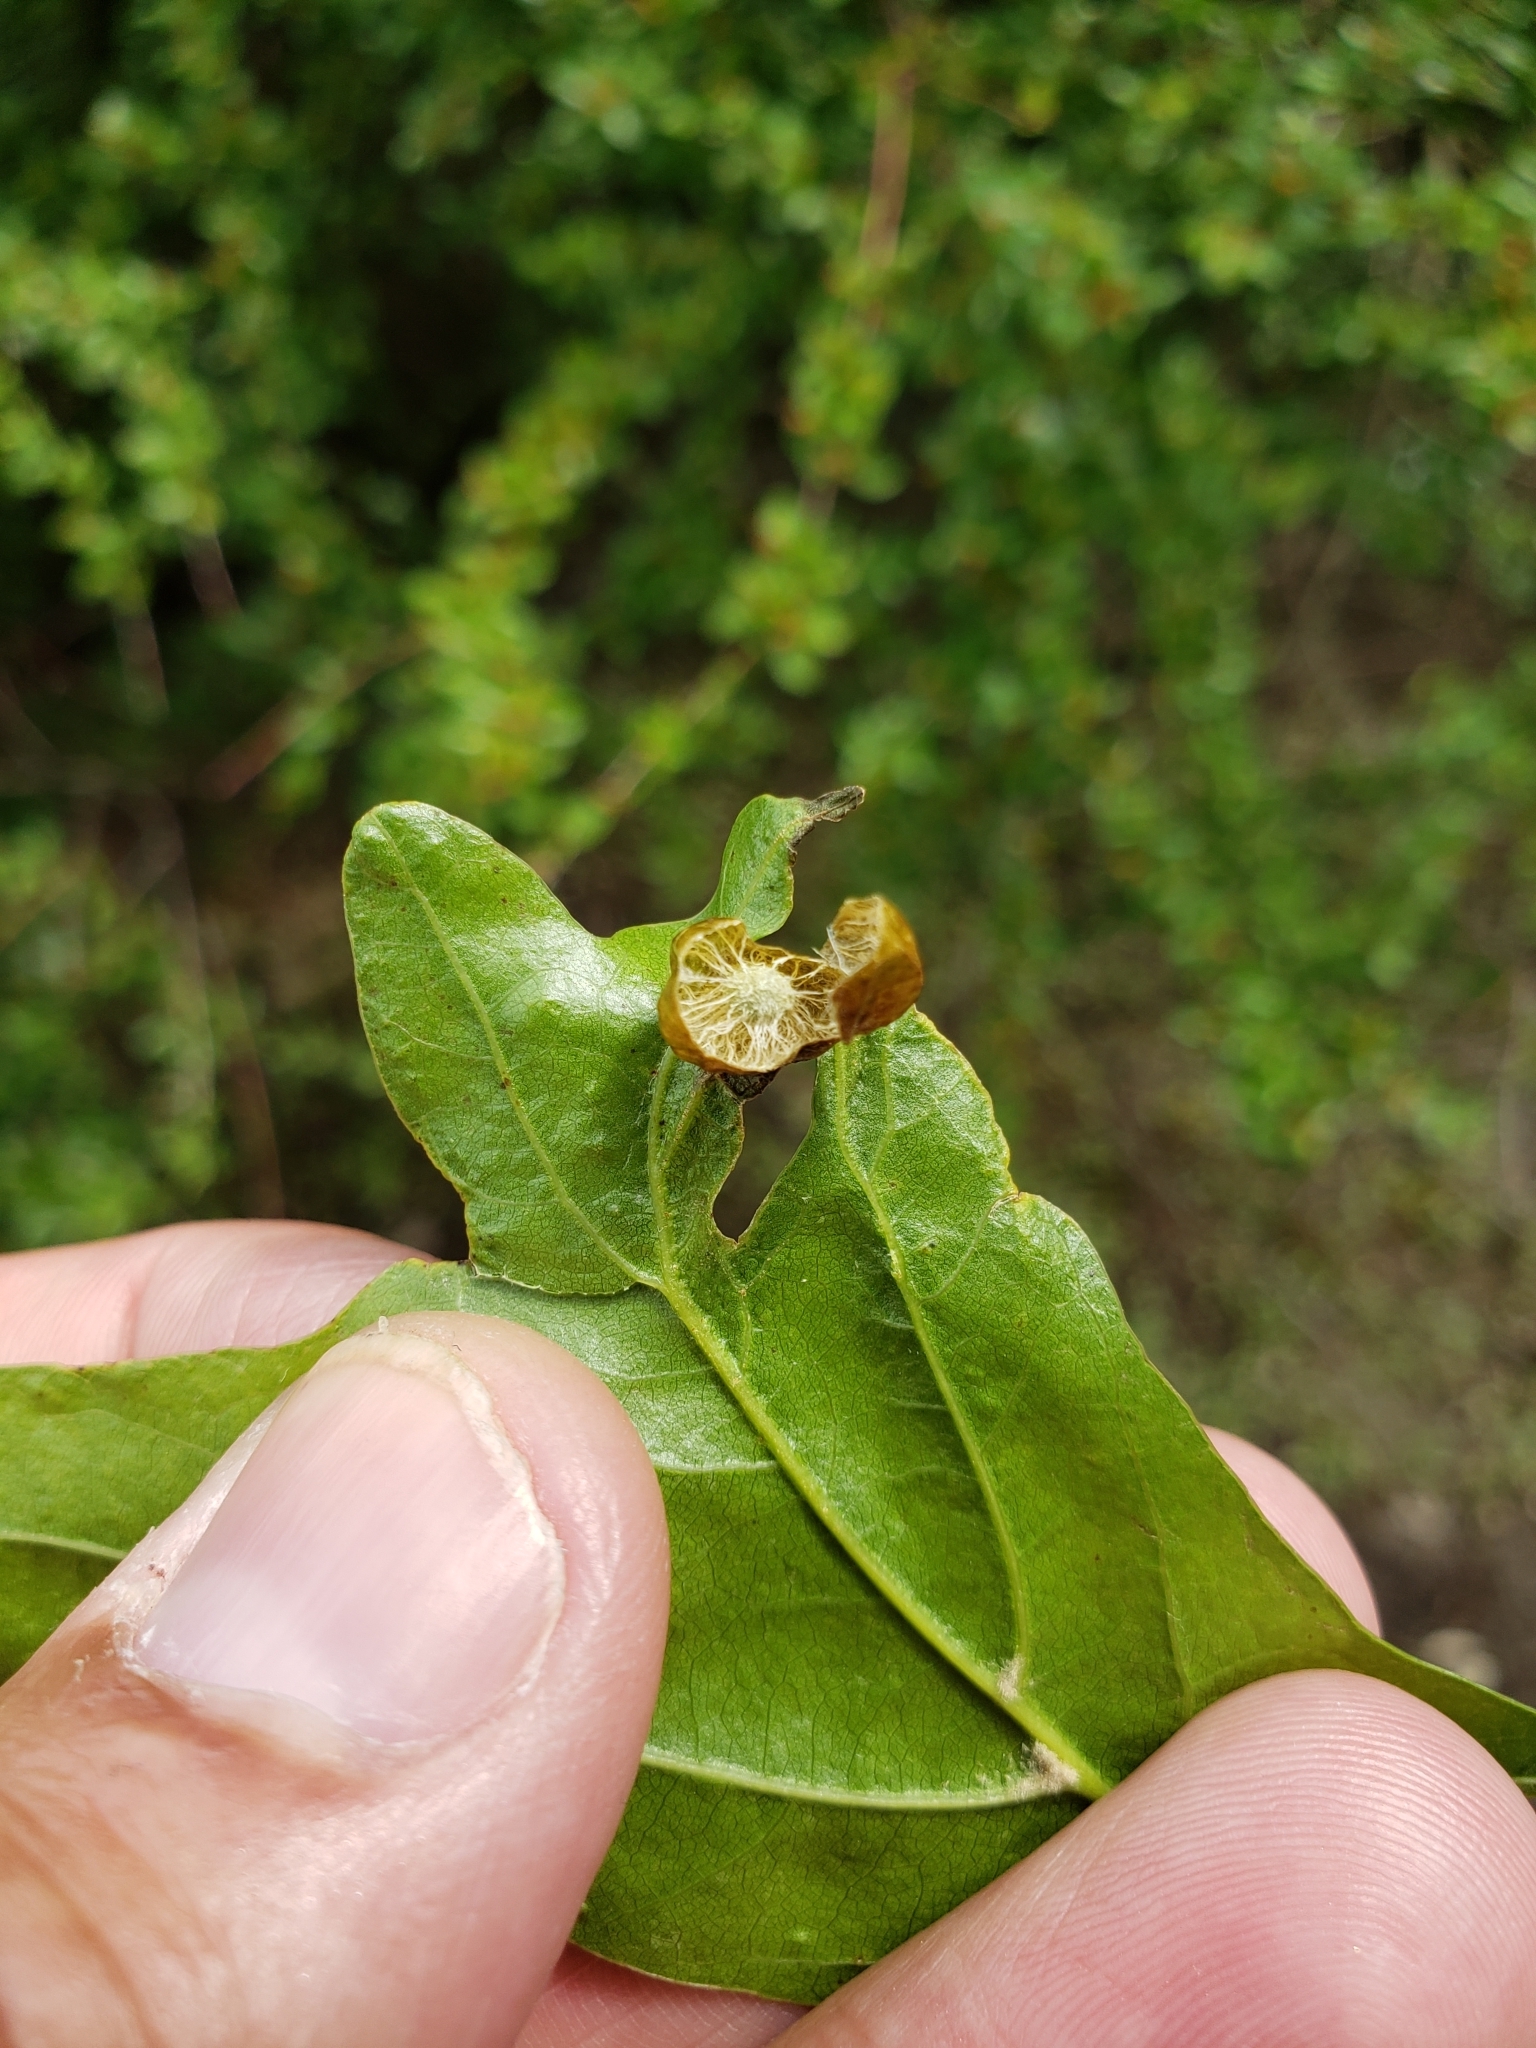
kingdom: Animalia
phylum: Arthropoda
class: Insecta
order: Hymenoptera
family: Cynipidae
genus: Amphibolips
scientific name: Amphibolips
